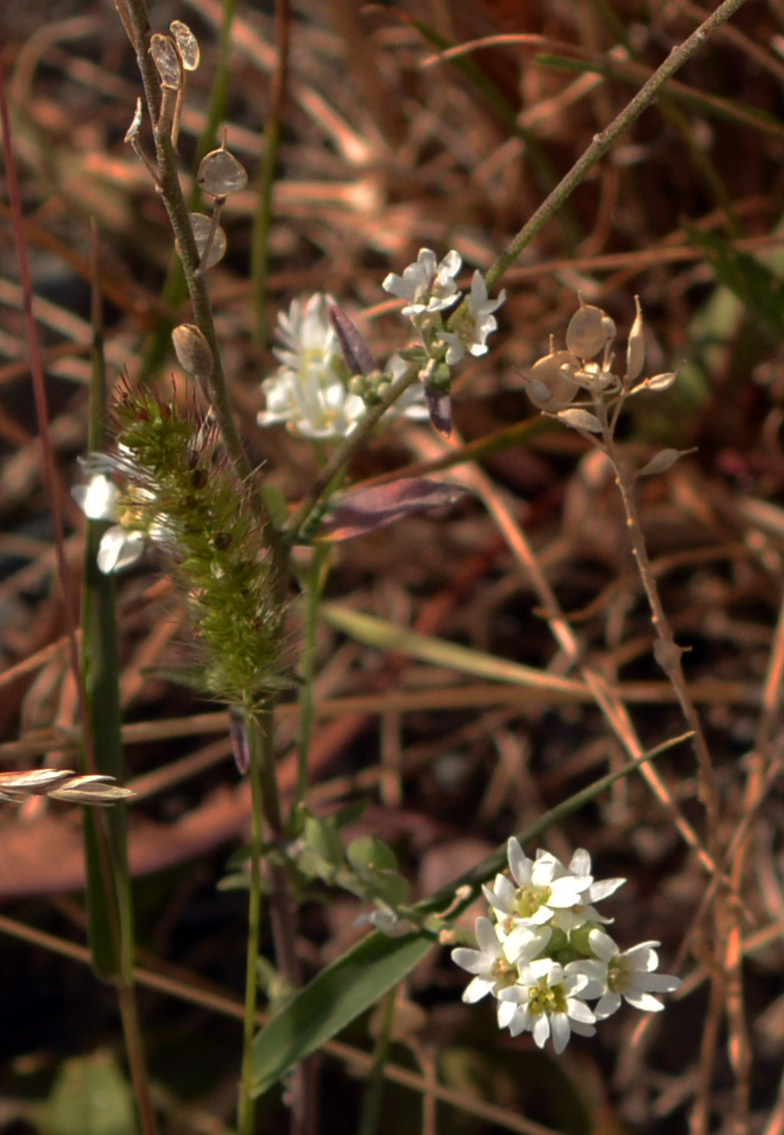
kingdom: Plantae
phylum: Tracheophyta
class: Magnoliopsida
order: Brassicales
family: Brassicaceae
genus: Berteroa
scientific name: Berteroa incana
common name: Hoary alison
